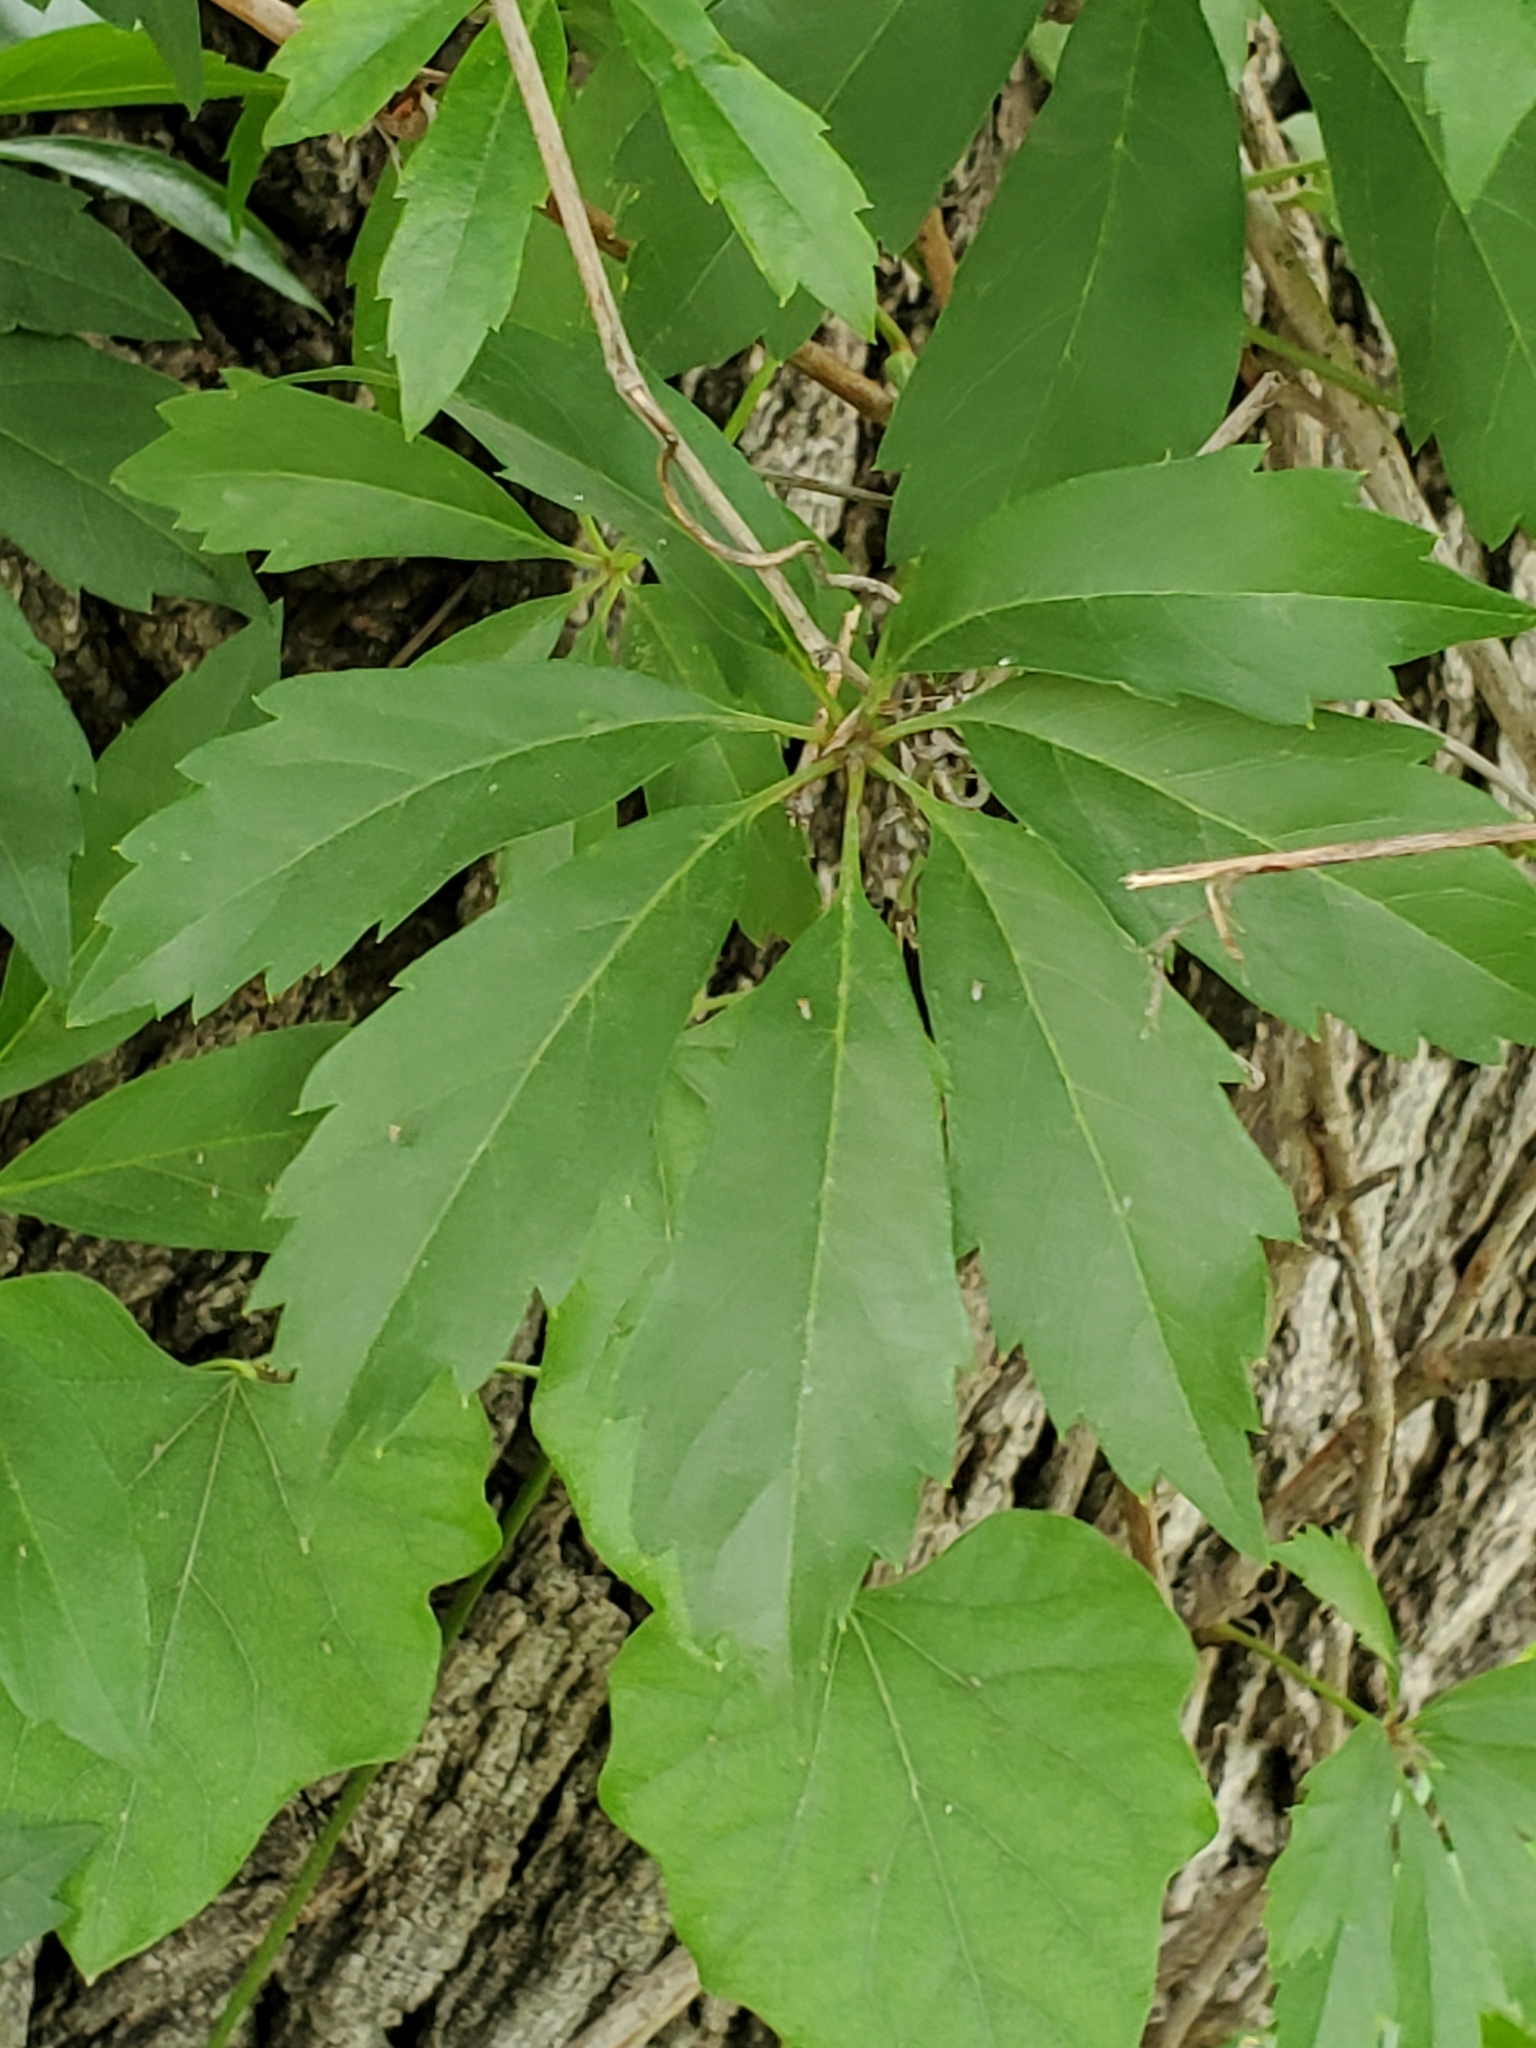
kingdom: Plantae
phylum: Tracheophyta
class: Magnoliopsida
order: Vitales
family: Vitaceae
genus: Parthenocissus
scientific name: Parthenocissus heptaphylla
